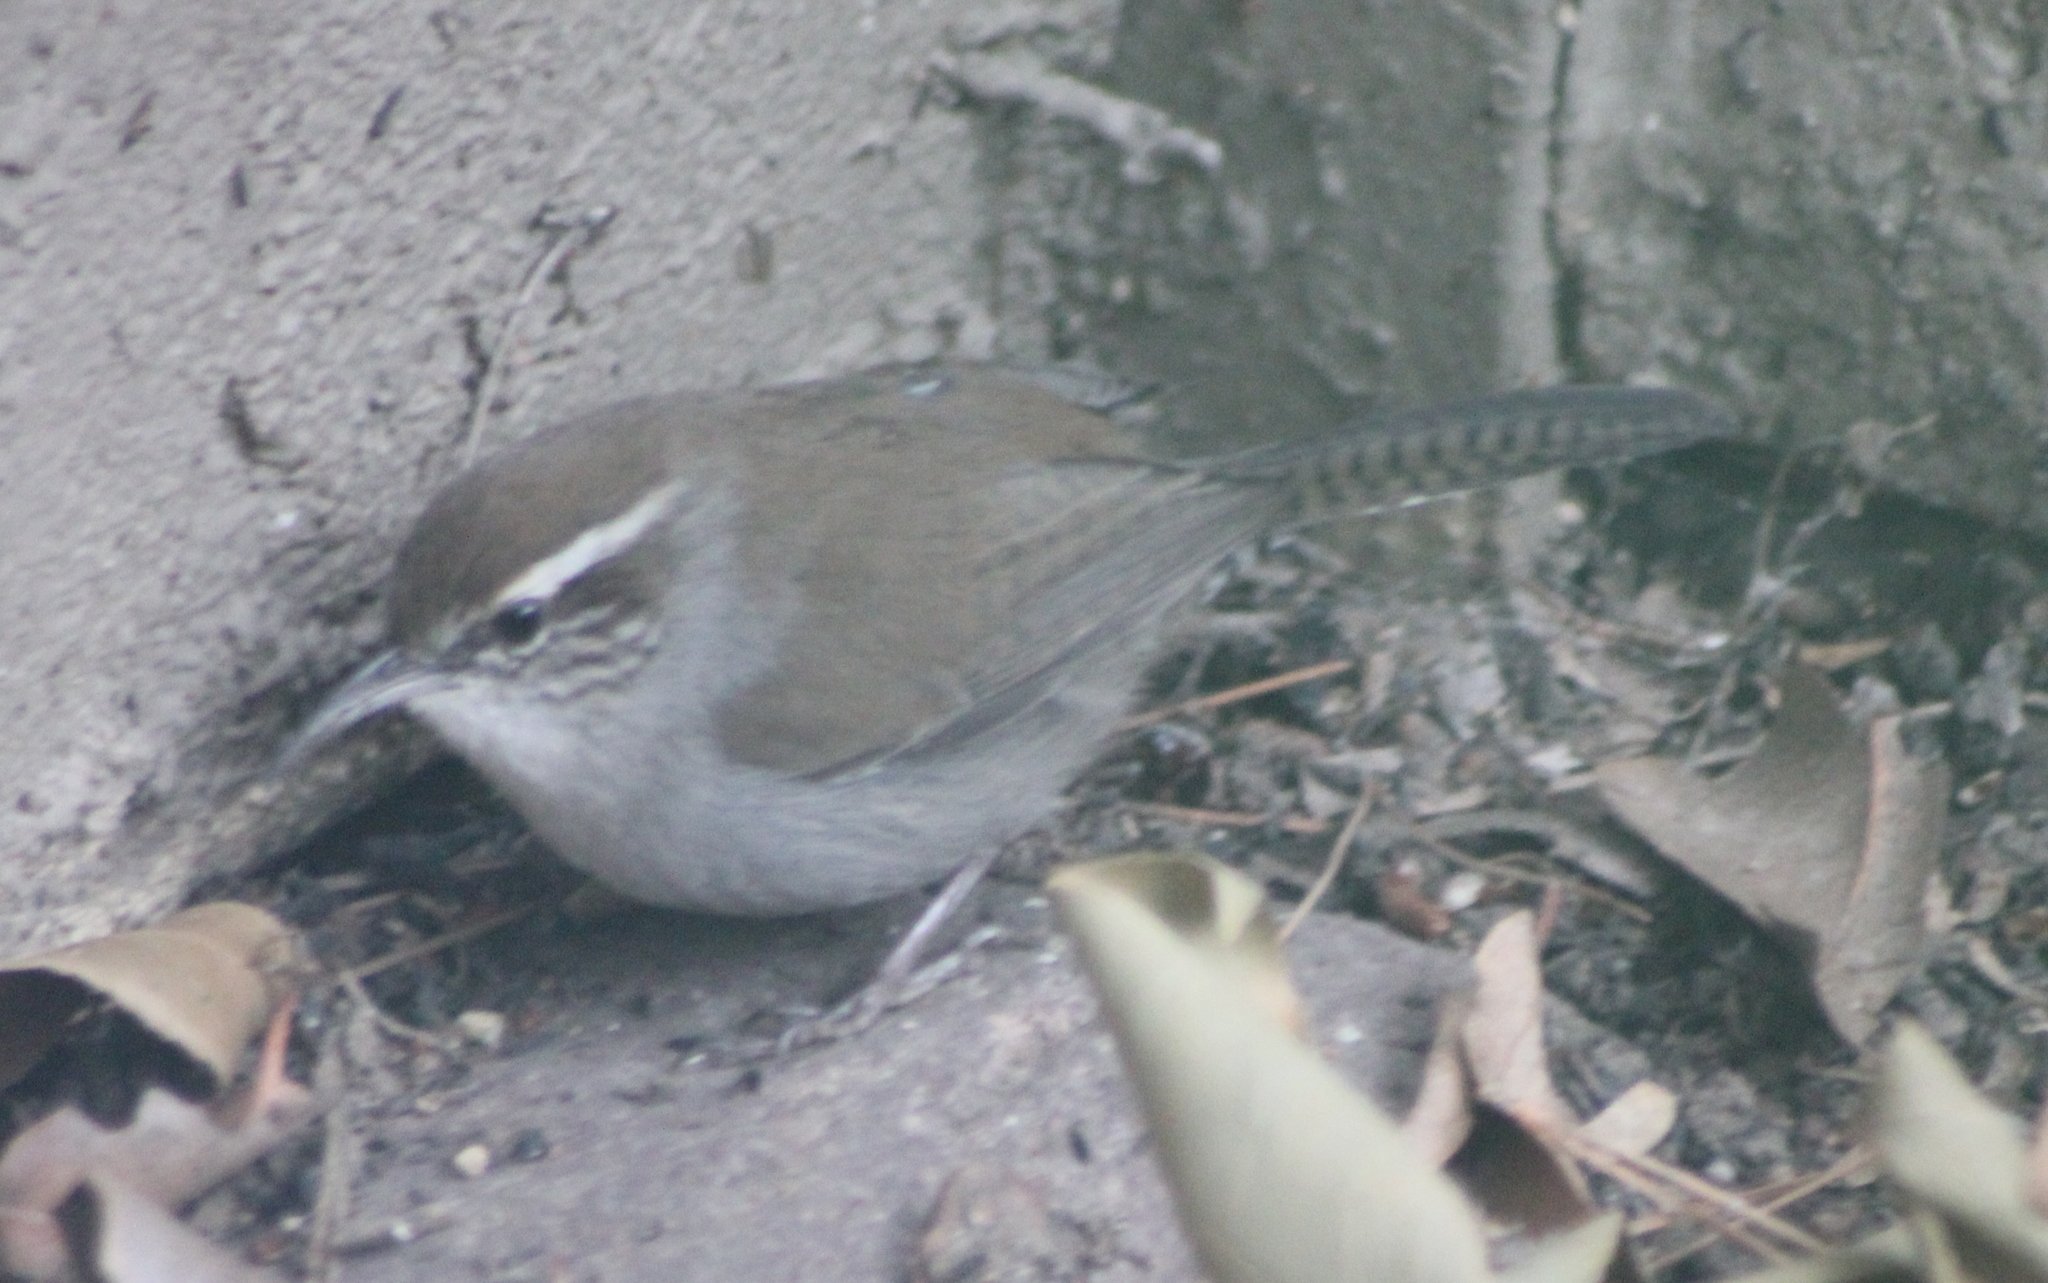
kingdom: Animalia
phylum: Chordata
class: Aves
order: Passeriformes
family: Troglodytidae
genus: Thryomanes
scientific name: Thryomanes bewickii
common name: Bewick's wren
